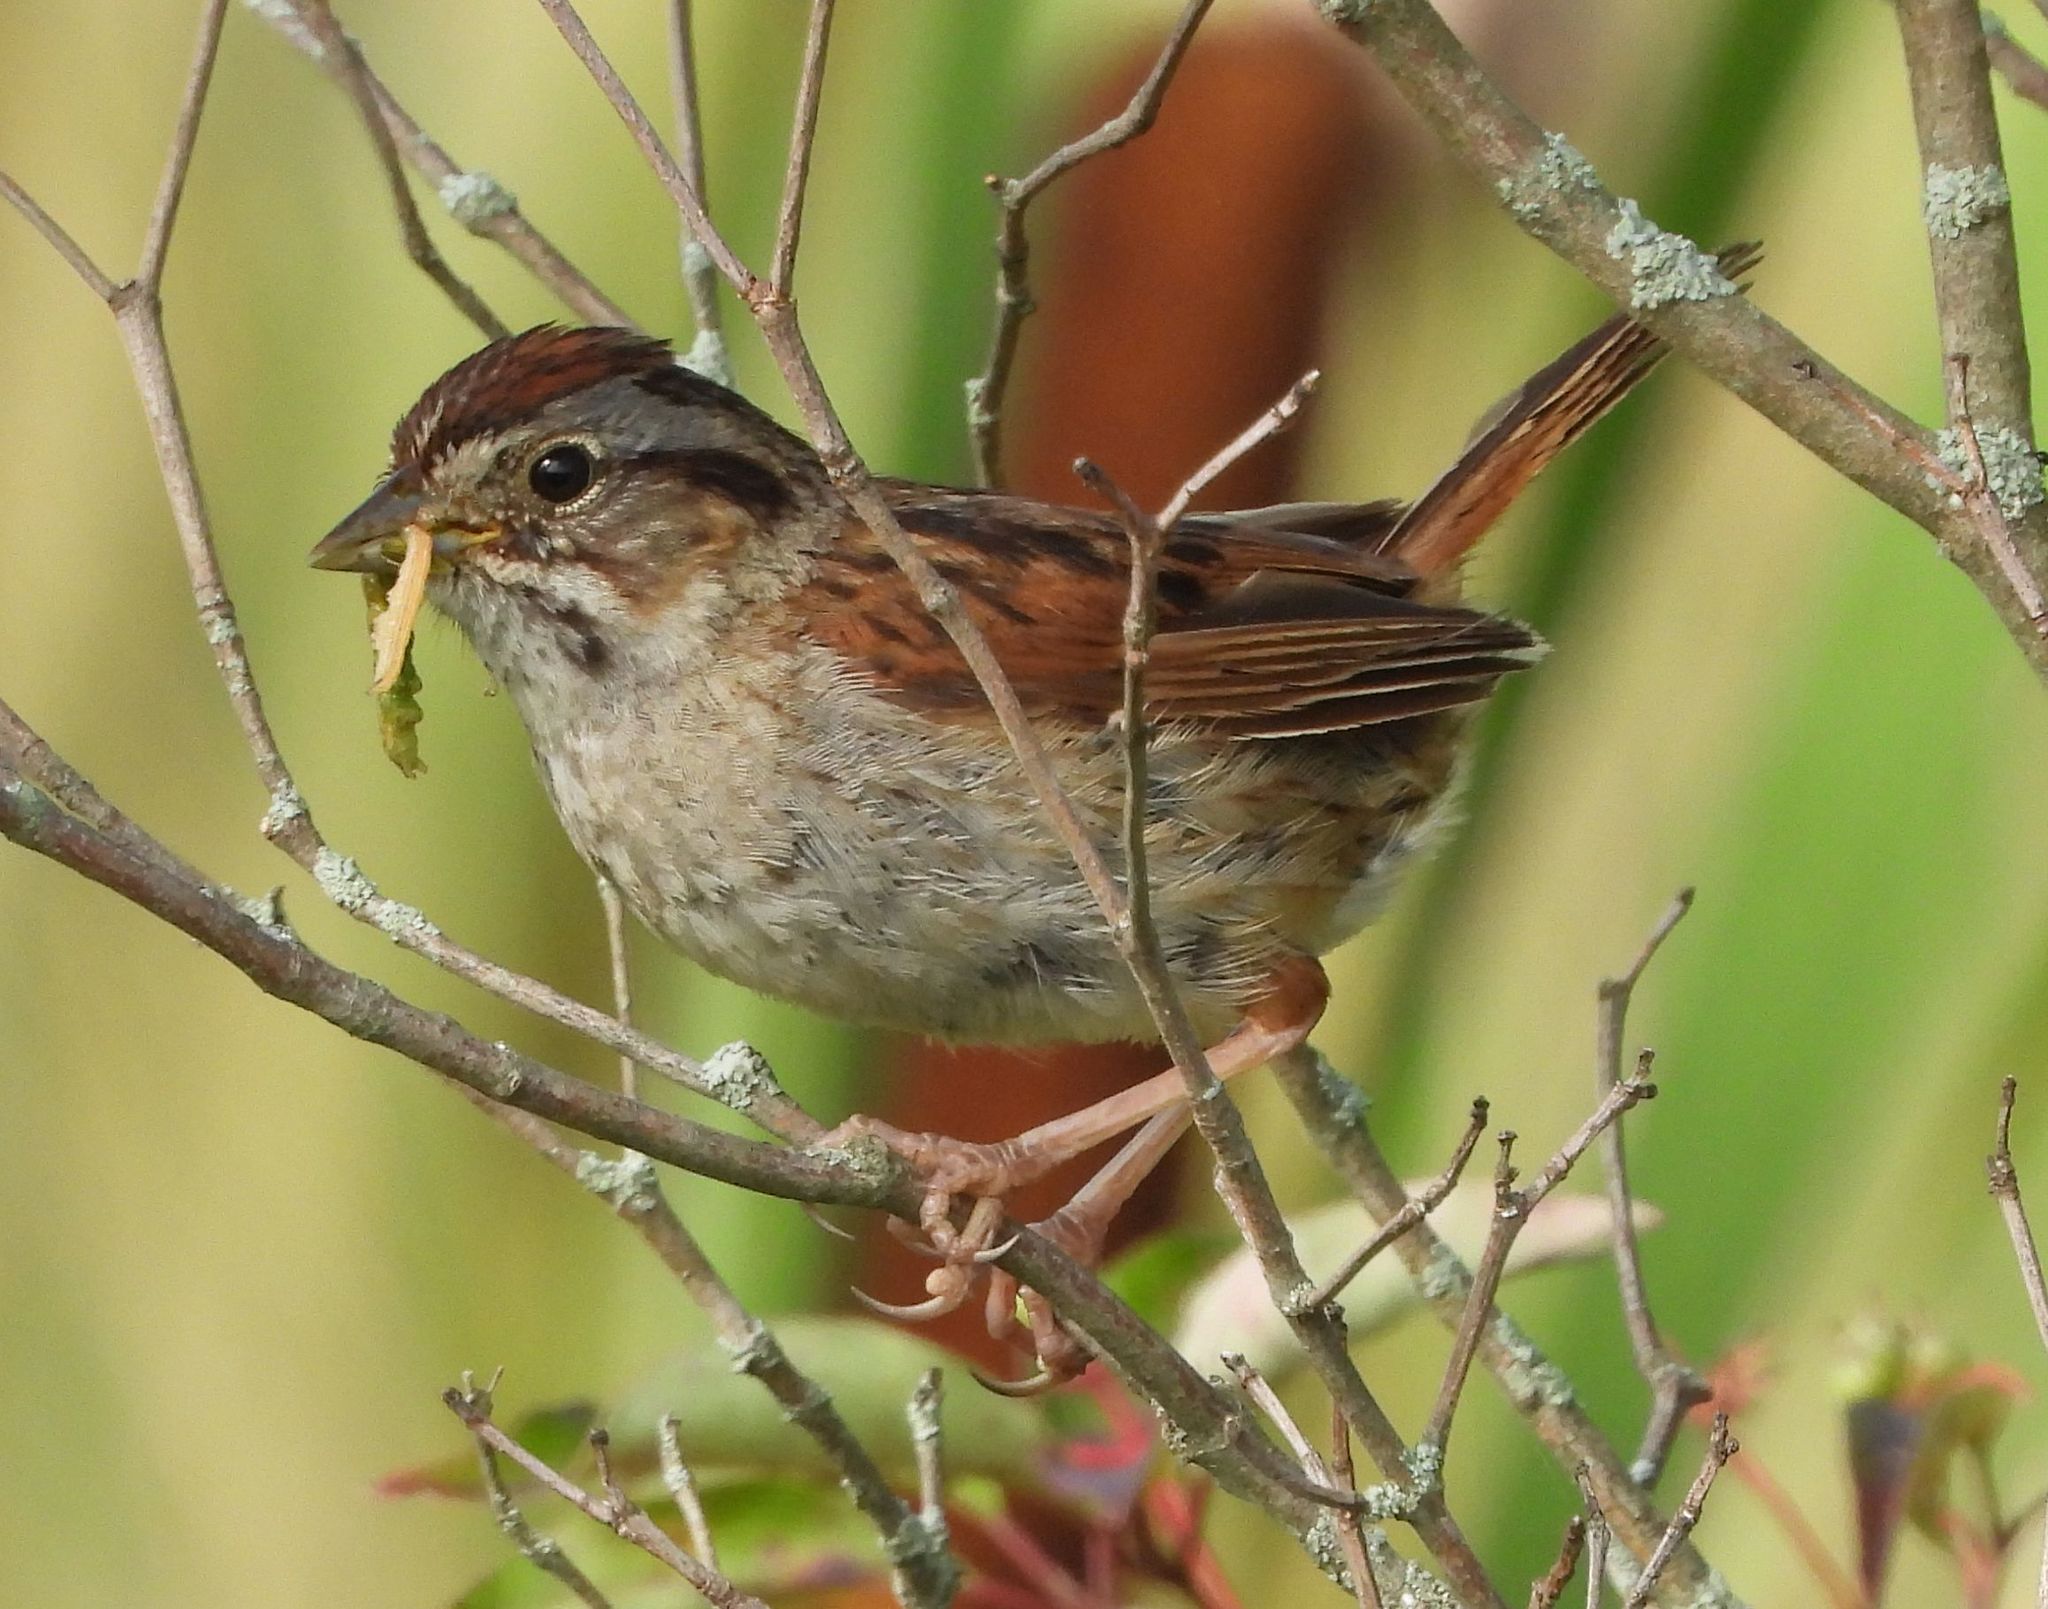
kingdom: Animalia
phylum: Chordata
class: Aves
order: Passeriformes
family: Passerellidae
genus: Melospiza
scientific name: Melospiza georgiana
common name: Swamp sparrow
